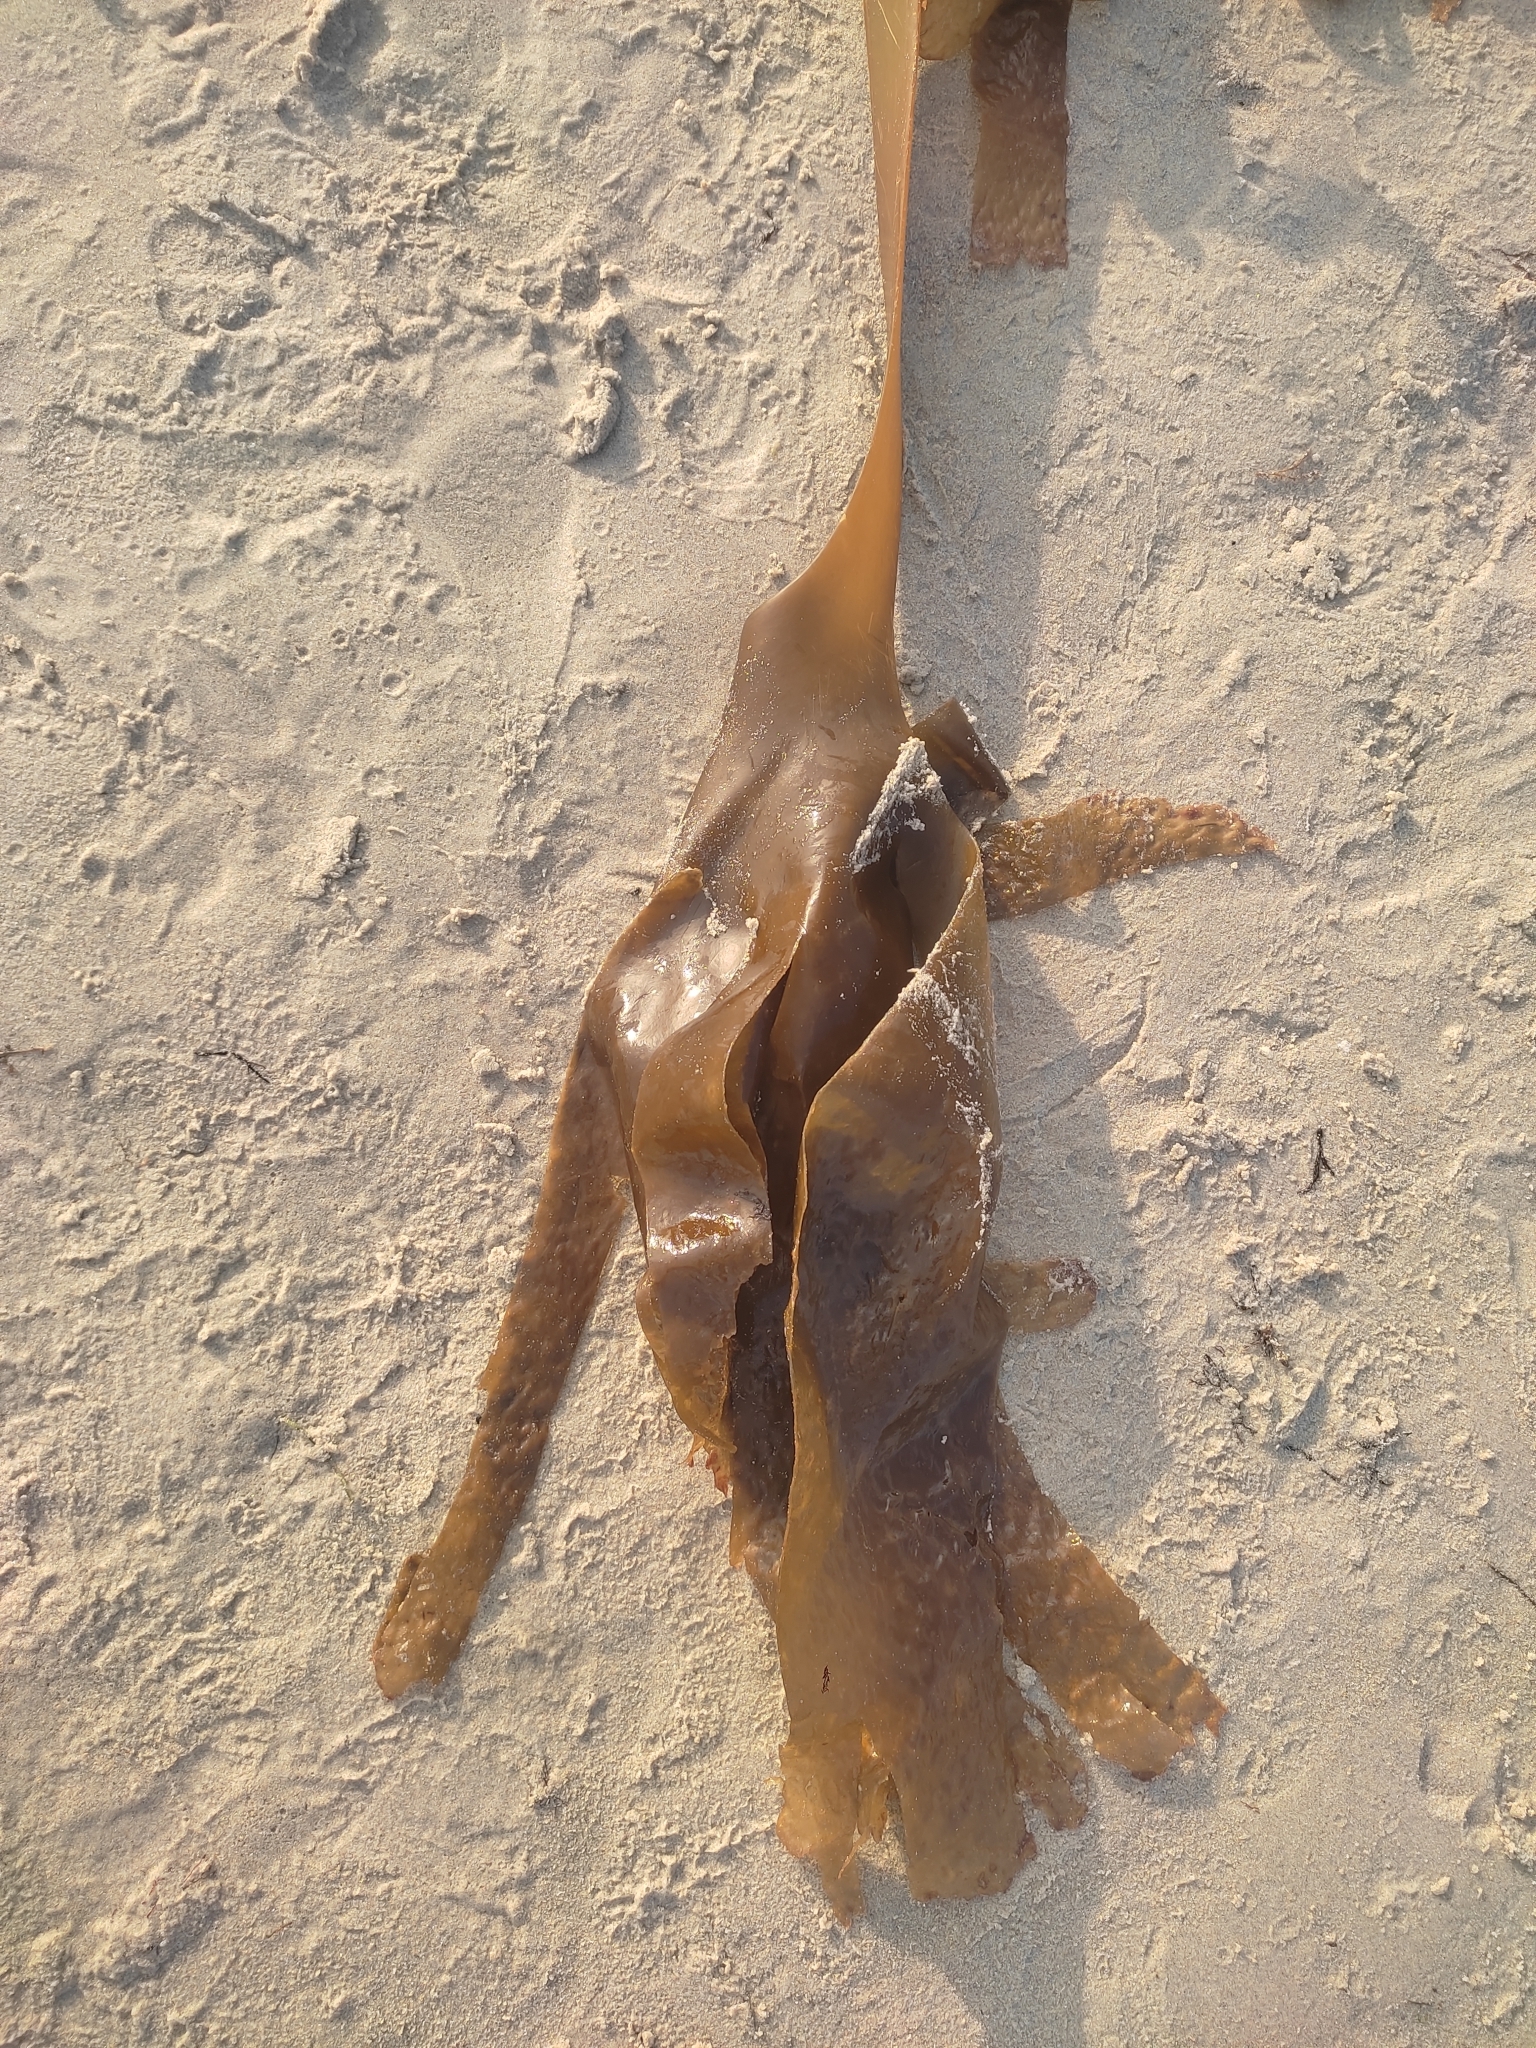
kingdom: Chromista
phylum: Ochrophyta
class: Phaeophyceae
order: Tilopteridales
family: Phyllariaceae
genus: Saccorhiza
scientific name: Saccorhiza polyschides
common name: Furbelows
